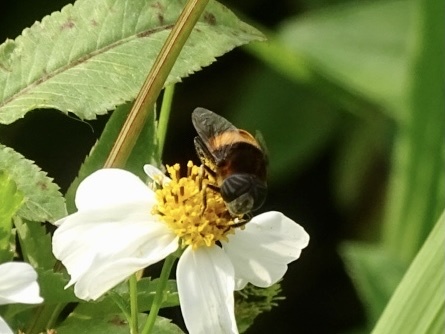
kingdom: Animalia
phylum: Arthropoda
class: Insecta
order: Diptera
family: Syrphidae
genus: Phytomia
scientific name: Phytomia zonata
